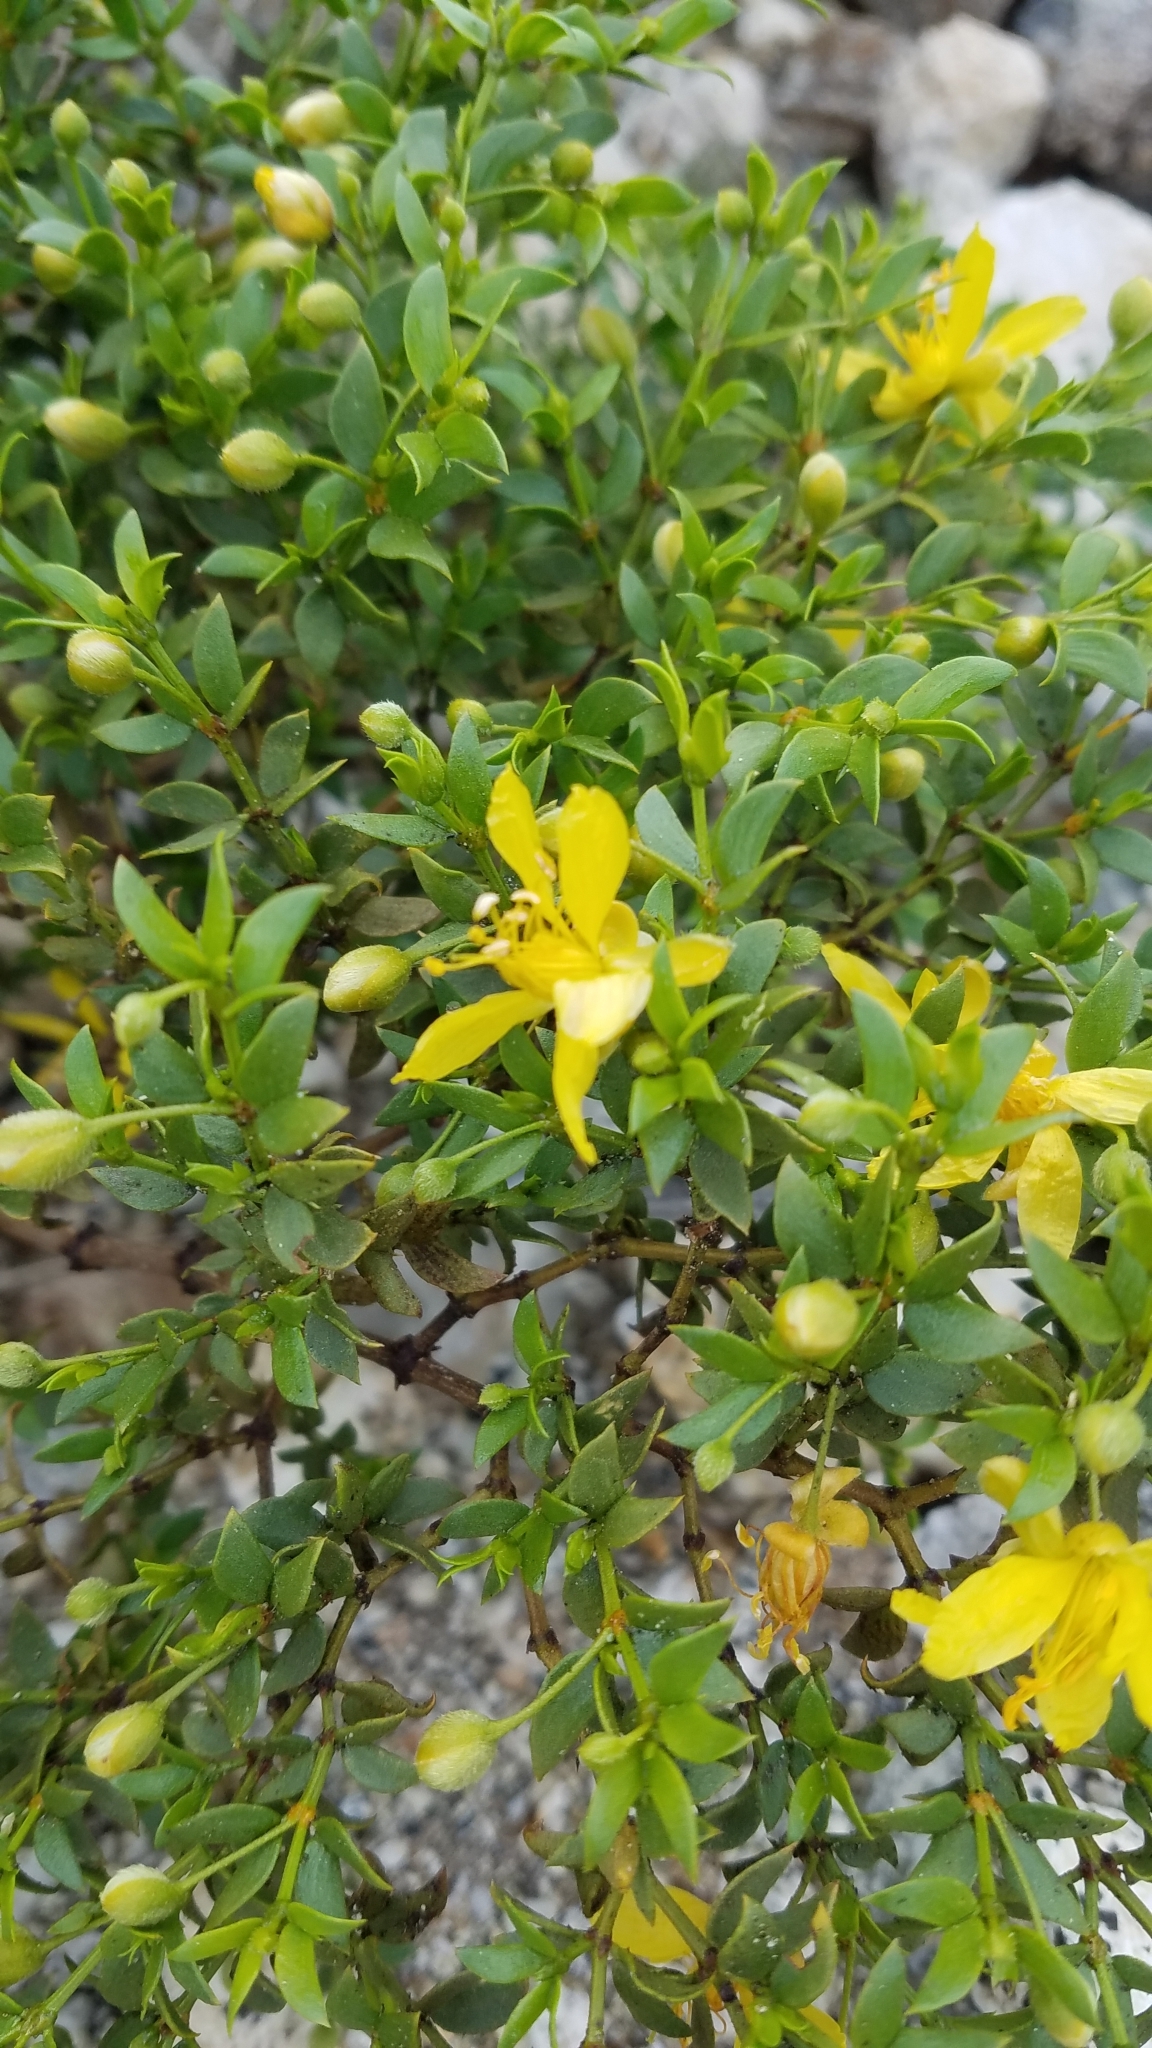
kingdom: Plantae
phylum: Tracheophyta
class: Magnoliopsida
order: Zygophyllales
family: Zygophyllaceae
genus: Larrea
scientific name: Larrea tridentata
